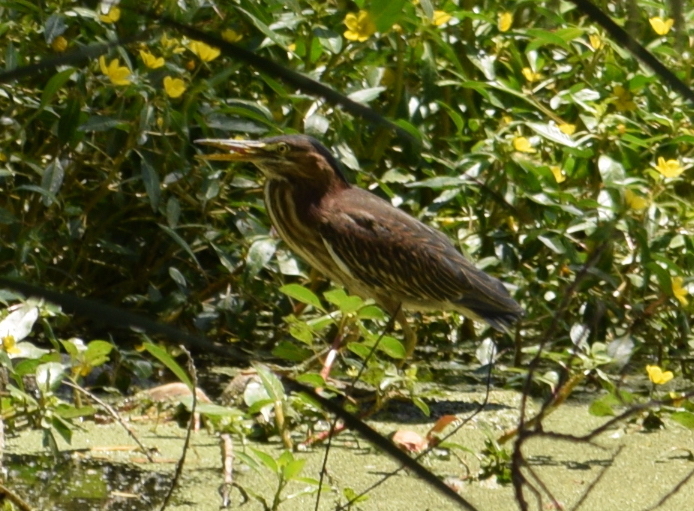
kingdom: Animalia
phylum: Chordata
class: Aves
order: Pelecaniformes
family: Ardeidae
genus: Butorides
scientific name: Butorides virescens
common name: Green heron
